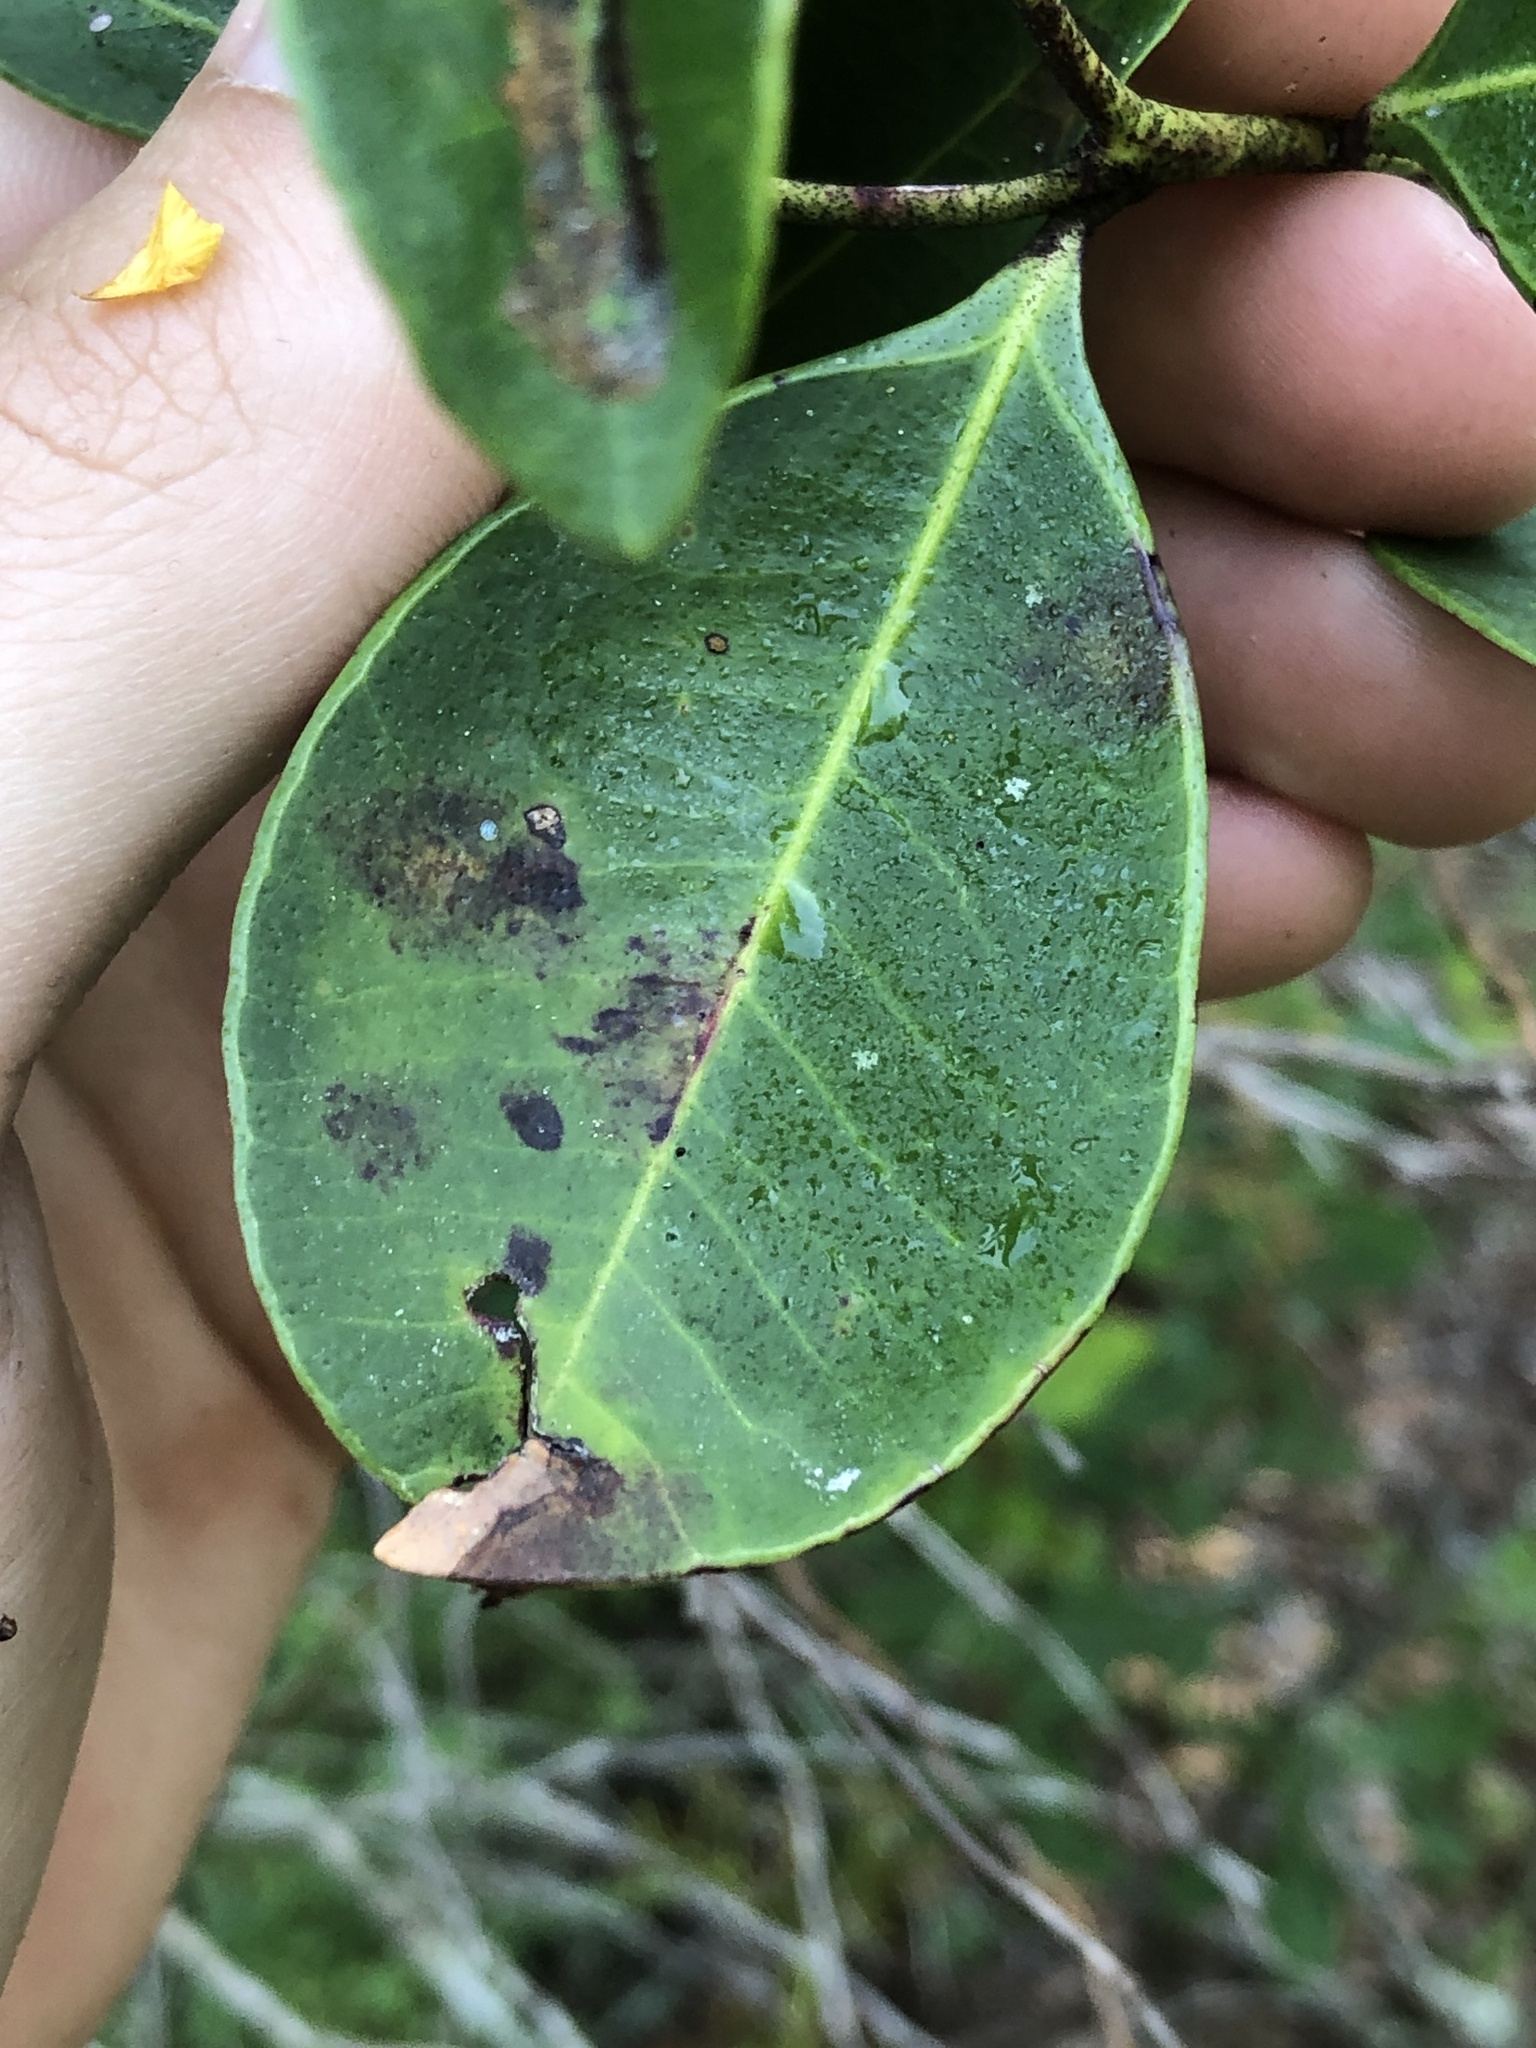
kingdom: Plantae
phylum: Tracheophyta
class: Magnoliopsida
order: Ericales
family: Ericaceae
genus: Lyonia
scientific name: Lyonia lucida
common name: Fetterbush
